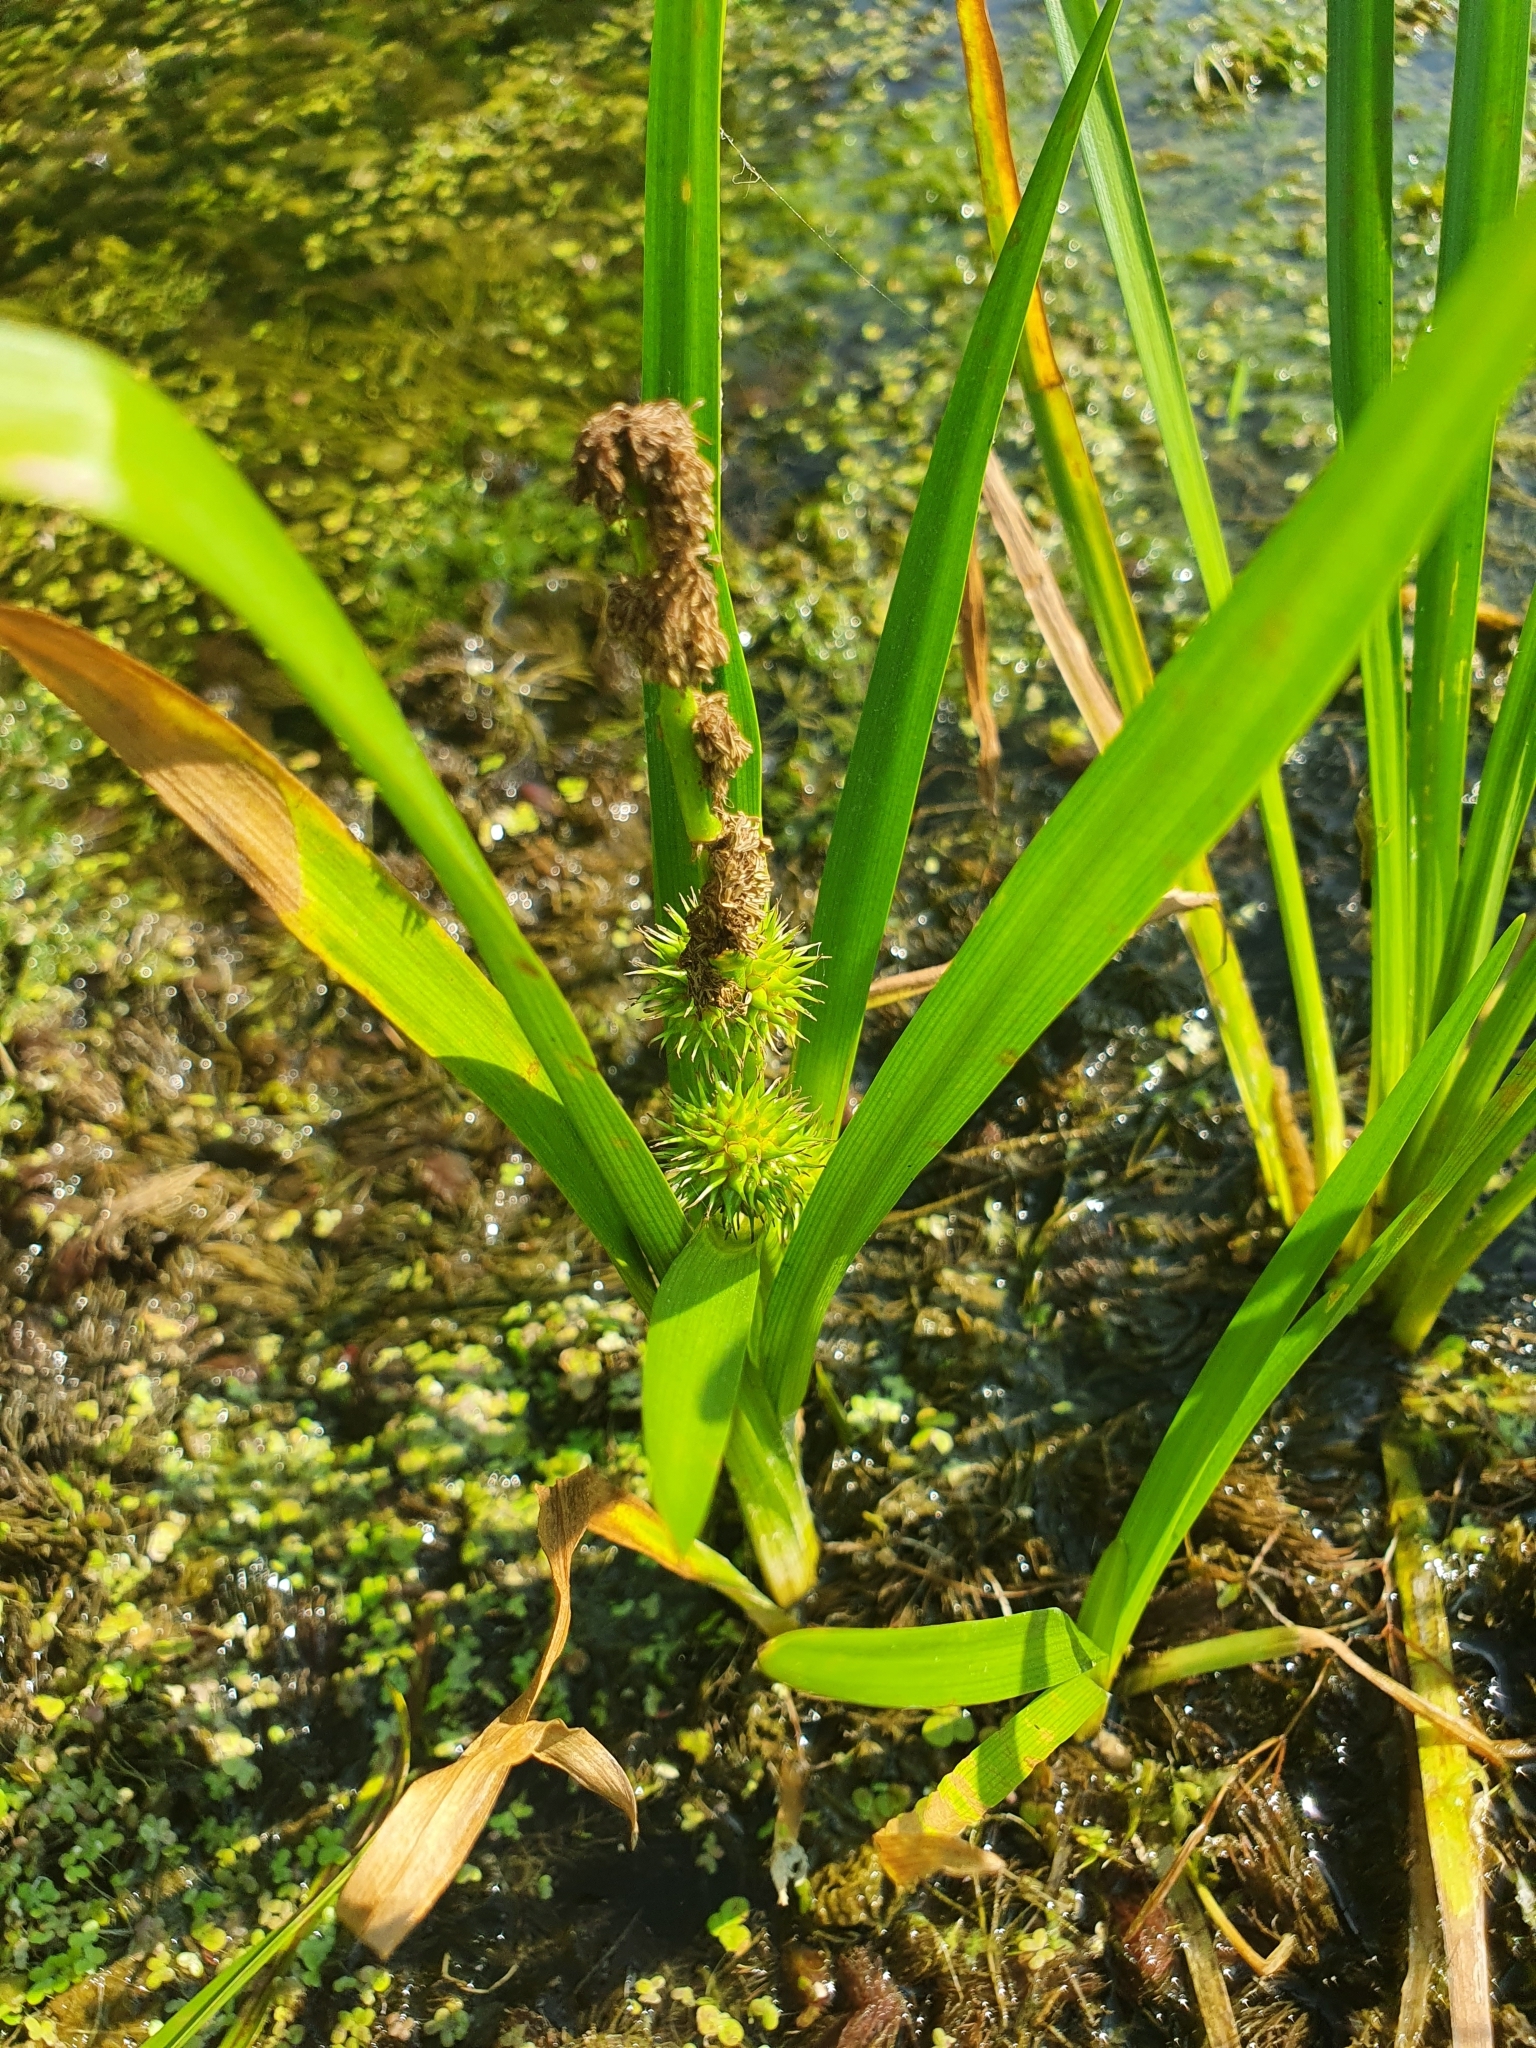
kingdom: Plantae
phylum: Tracheophyta
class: Liliopsida
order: Poales
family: Typhaceae
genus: Sparganium
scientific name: Sparganium emersum
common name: Unbranched bur-reed
